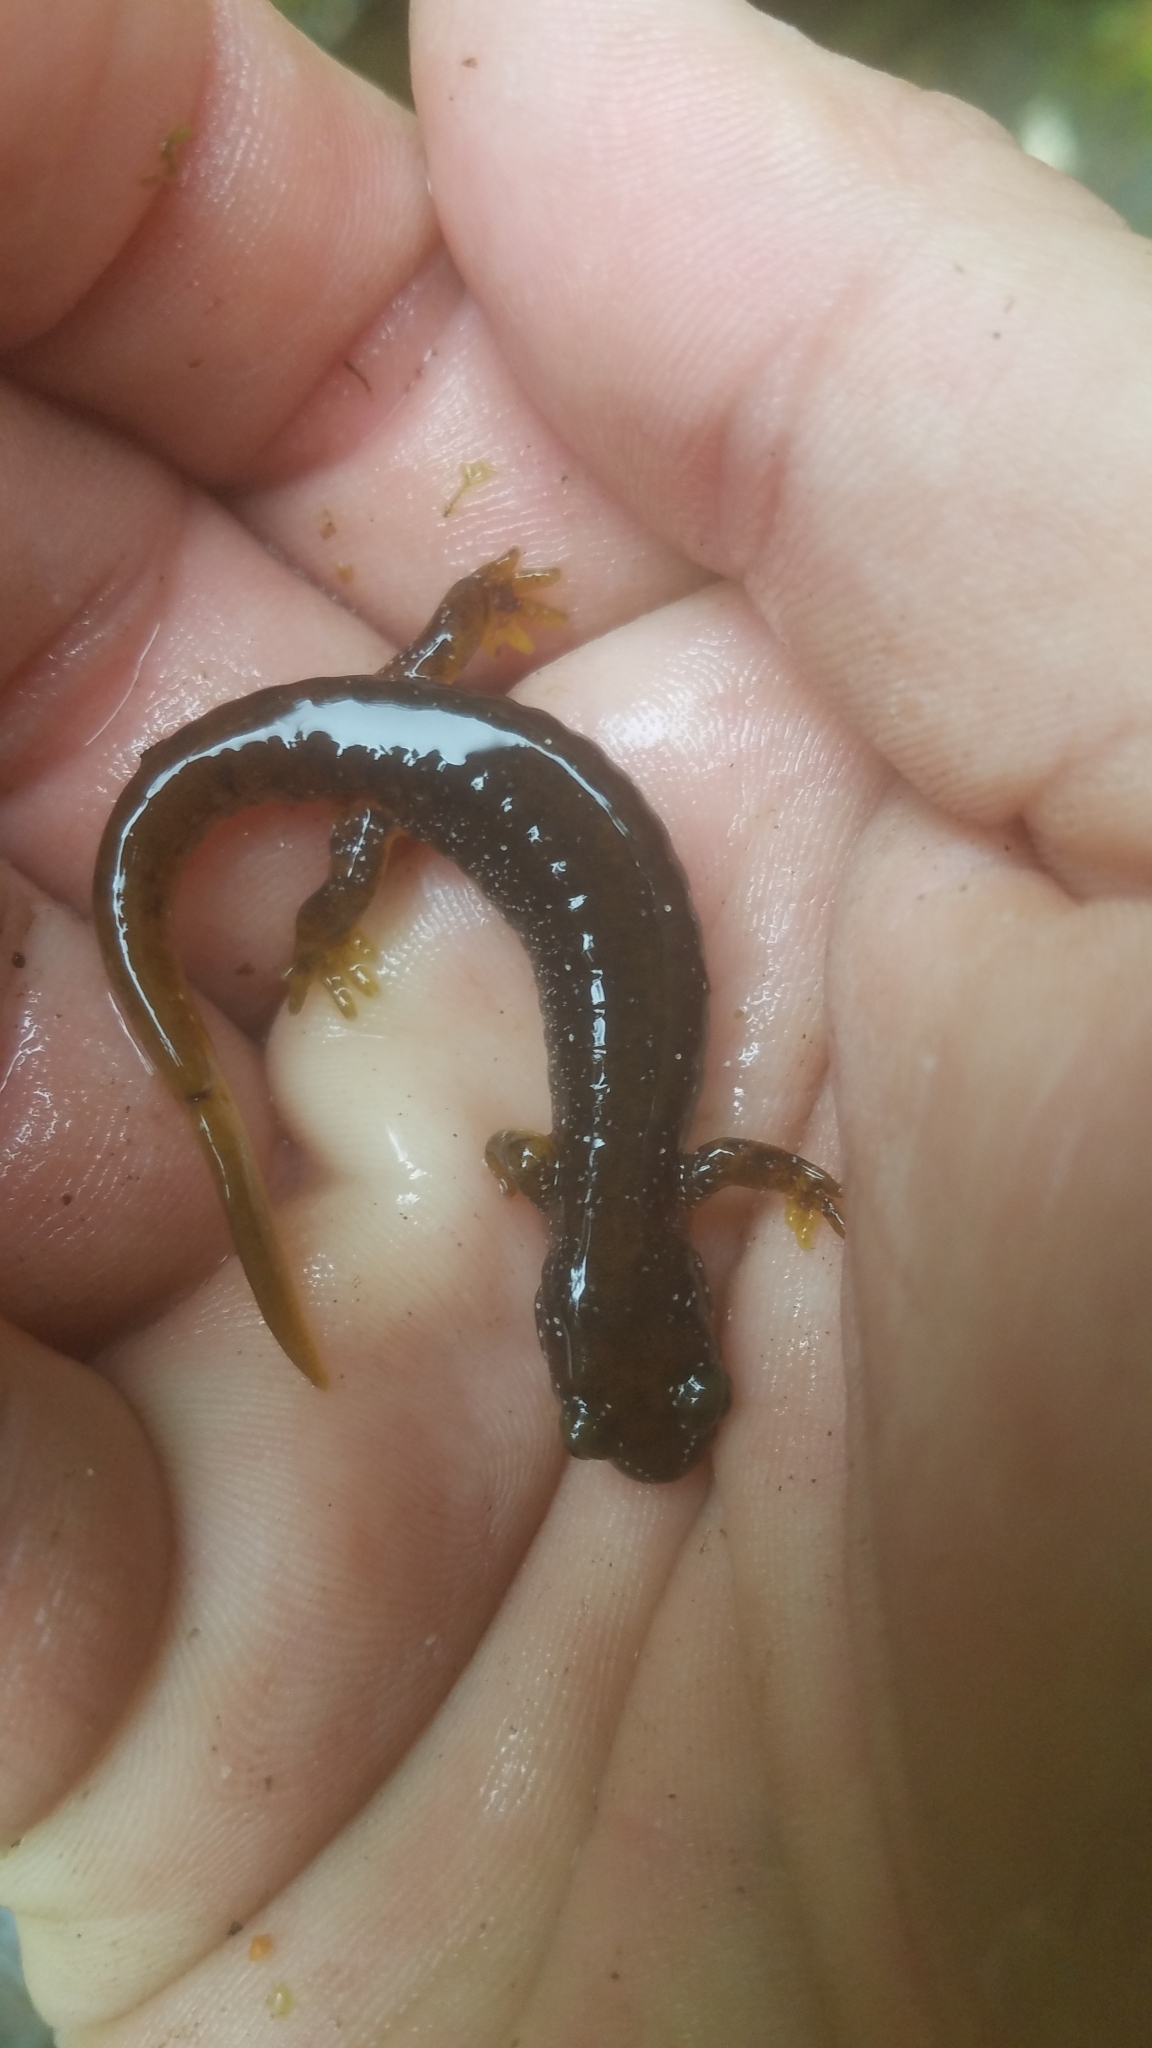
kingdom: Animalia
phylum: Chordata
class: Amphibia
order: Caudata
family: Rhyacotritonidae
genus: Rhyacotriton
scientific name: Rhyacotriton olympicus
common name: Olympic torrent salamander
